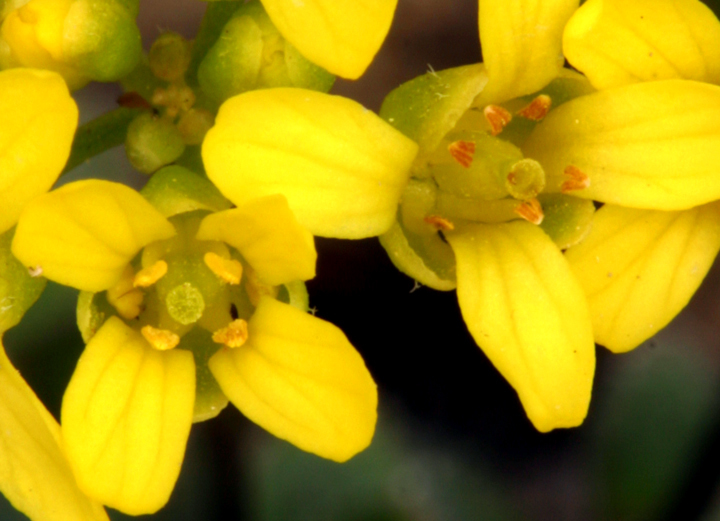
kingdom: Plantae
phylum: Tracheophyta
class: Magnoliopsida
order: Brassicales
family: Brassicaceae
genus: Draba
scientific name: Draba asterophora
